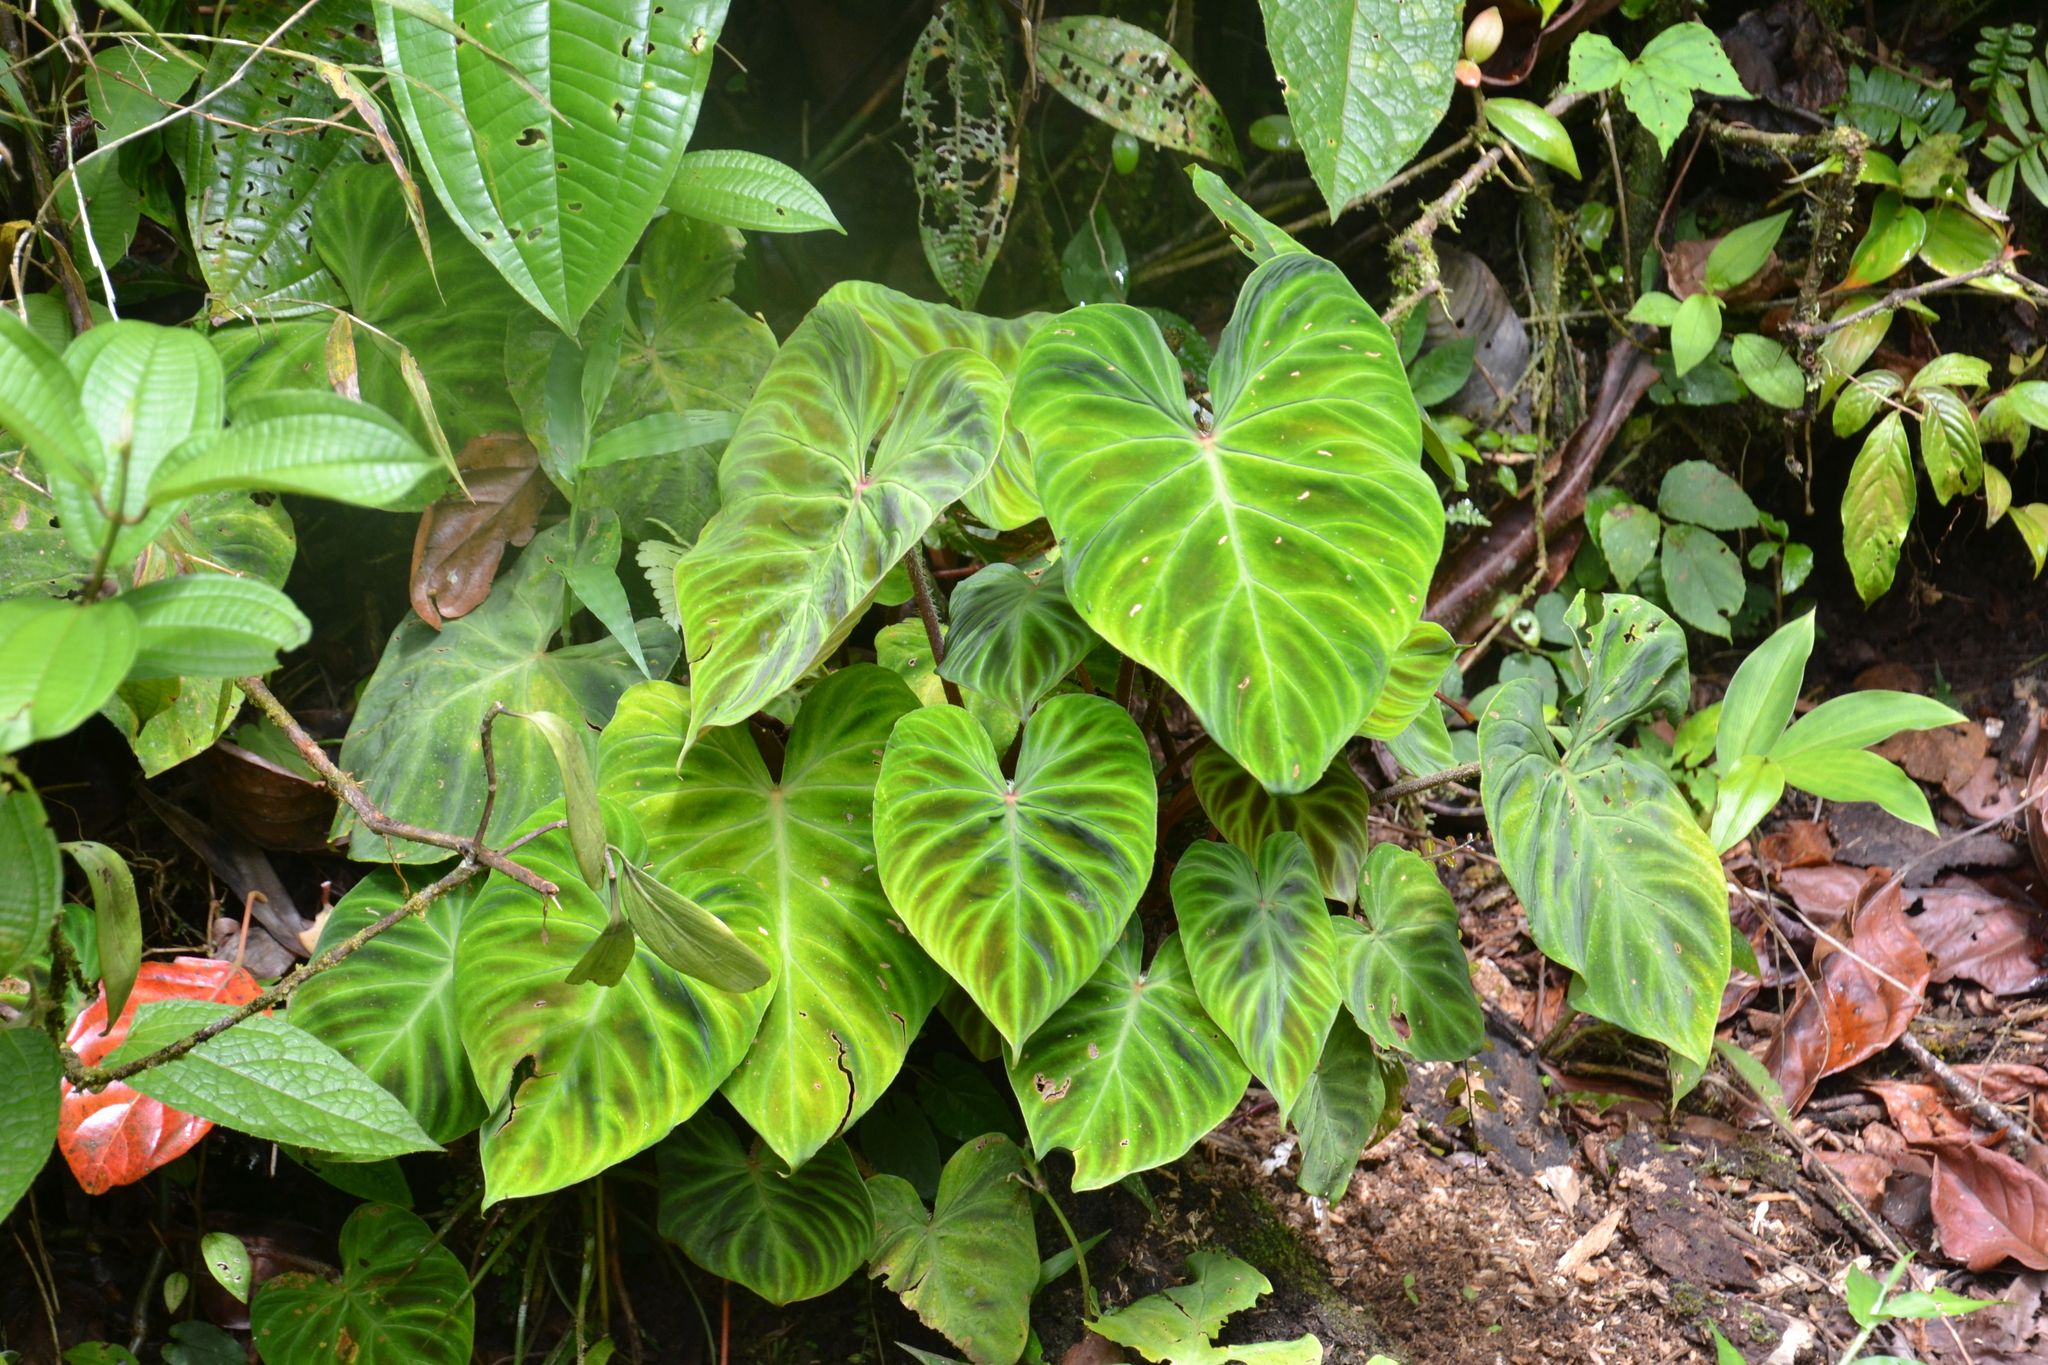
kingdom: Plantae
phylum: Tracheophyta
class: Liliopsida
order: Alismatales
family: Araceae
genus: Philodendron
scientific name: Philodendron verrucosum
